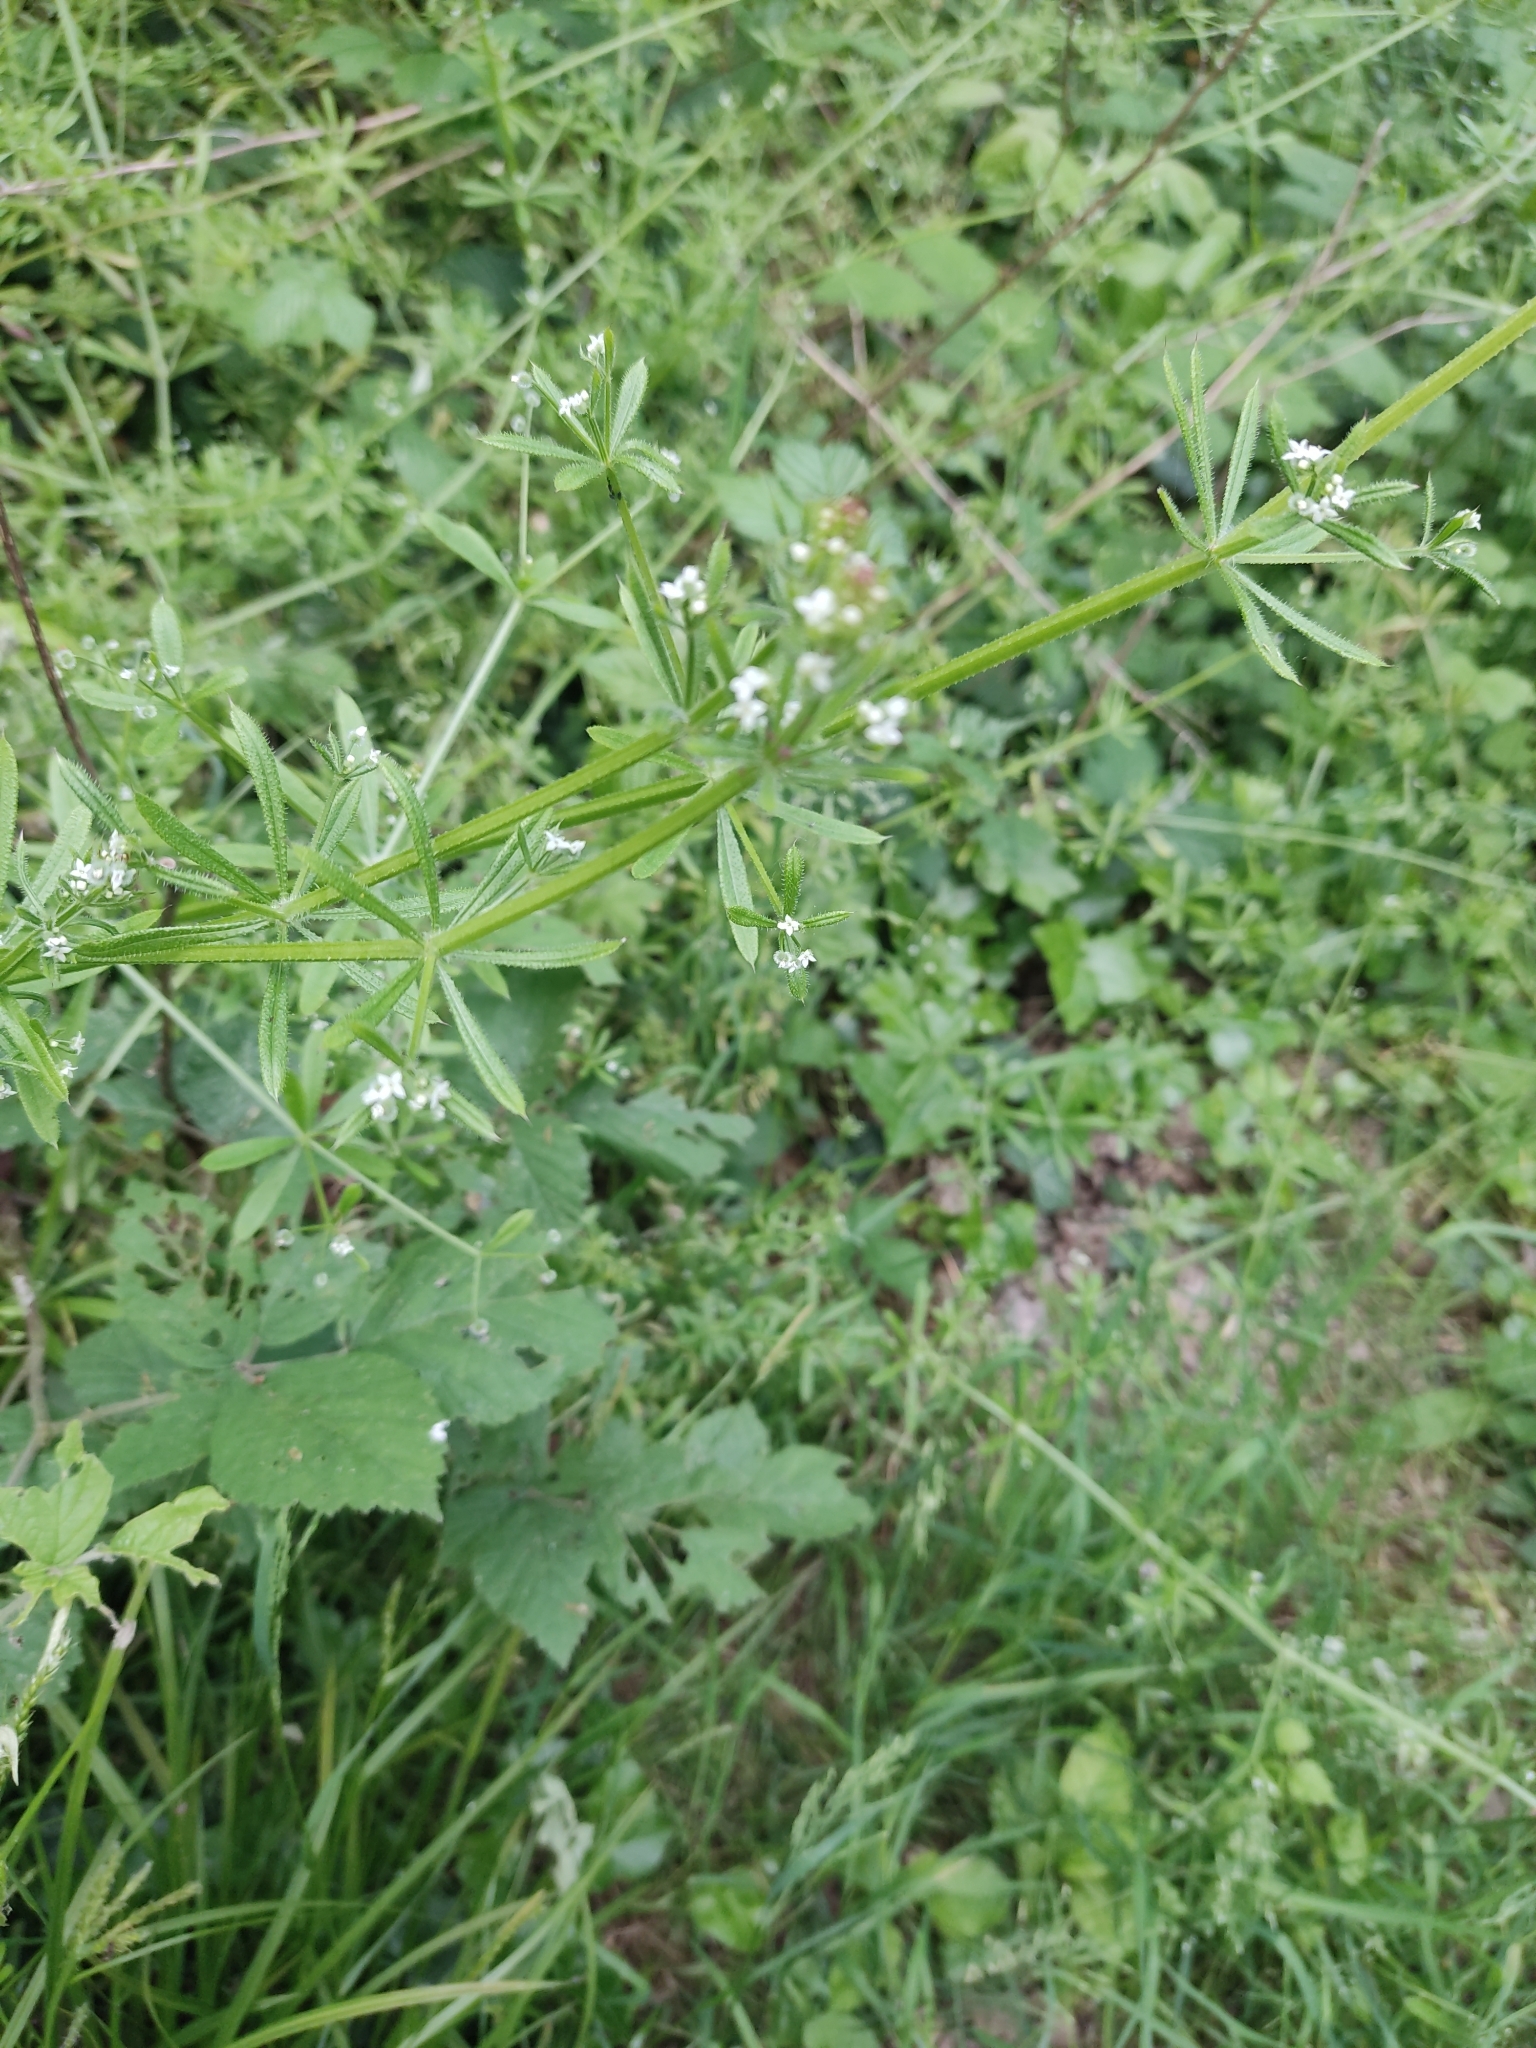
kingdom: Plantae
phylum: Tracheophyta
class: Magnoliopsida
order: Gentianales
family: Rubiaceae
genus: Galium
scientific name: Galium aparine
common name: Cleavers
